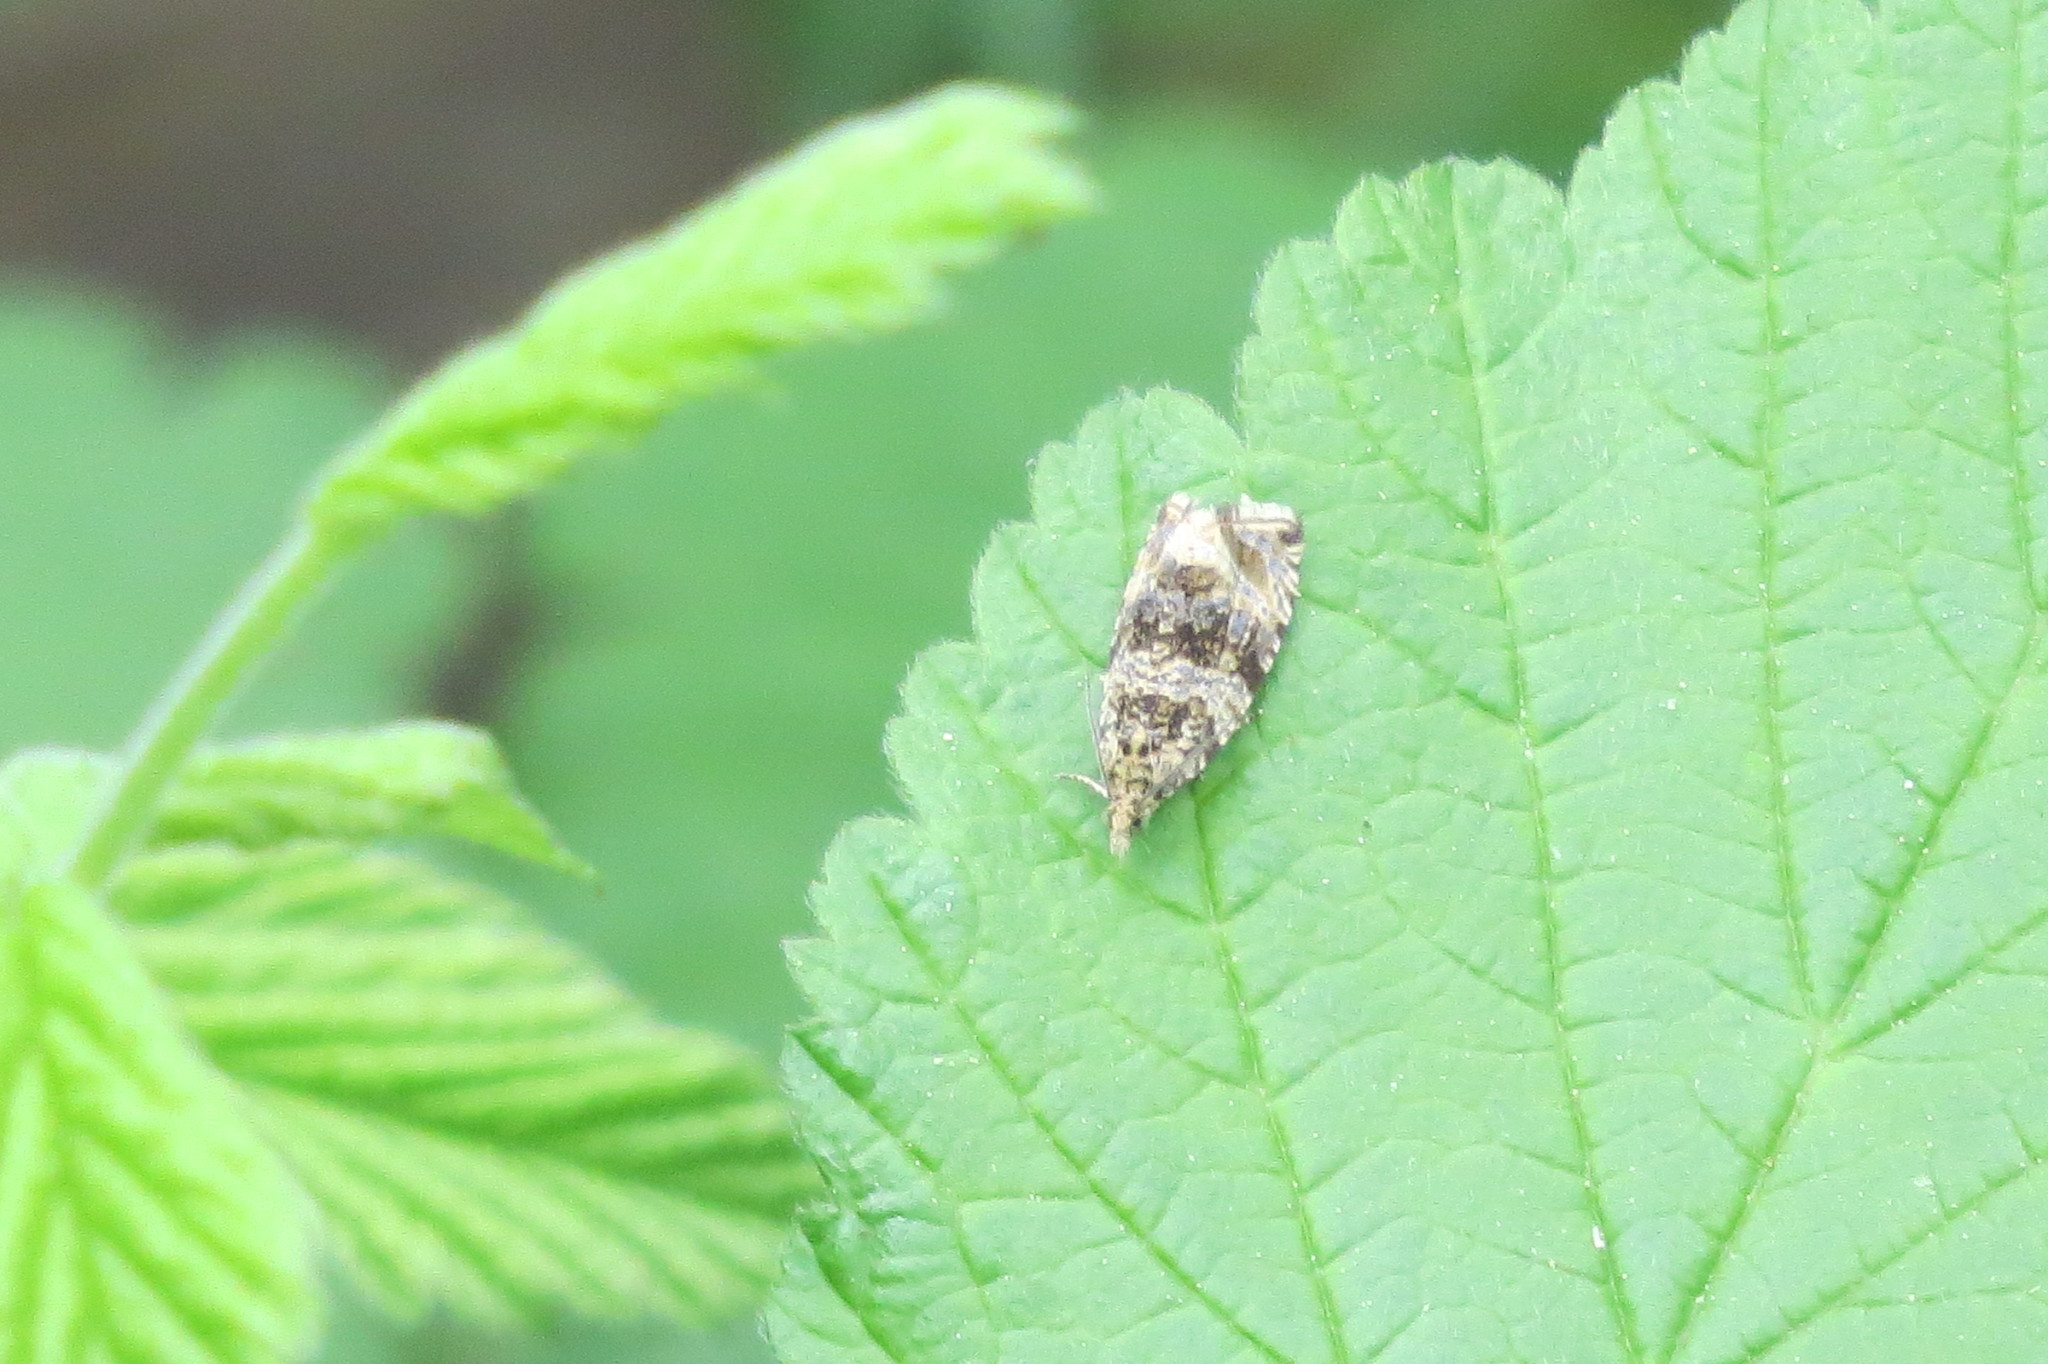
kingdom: Animalia
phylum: Arthropoda
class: Insecta
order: Lepidoptera
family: Tortricidae
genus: Syricoris
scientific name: Syricoris lacunana
